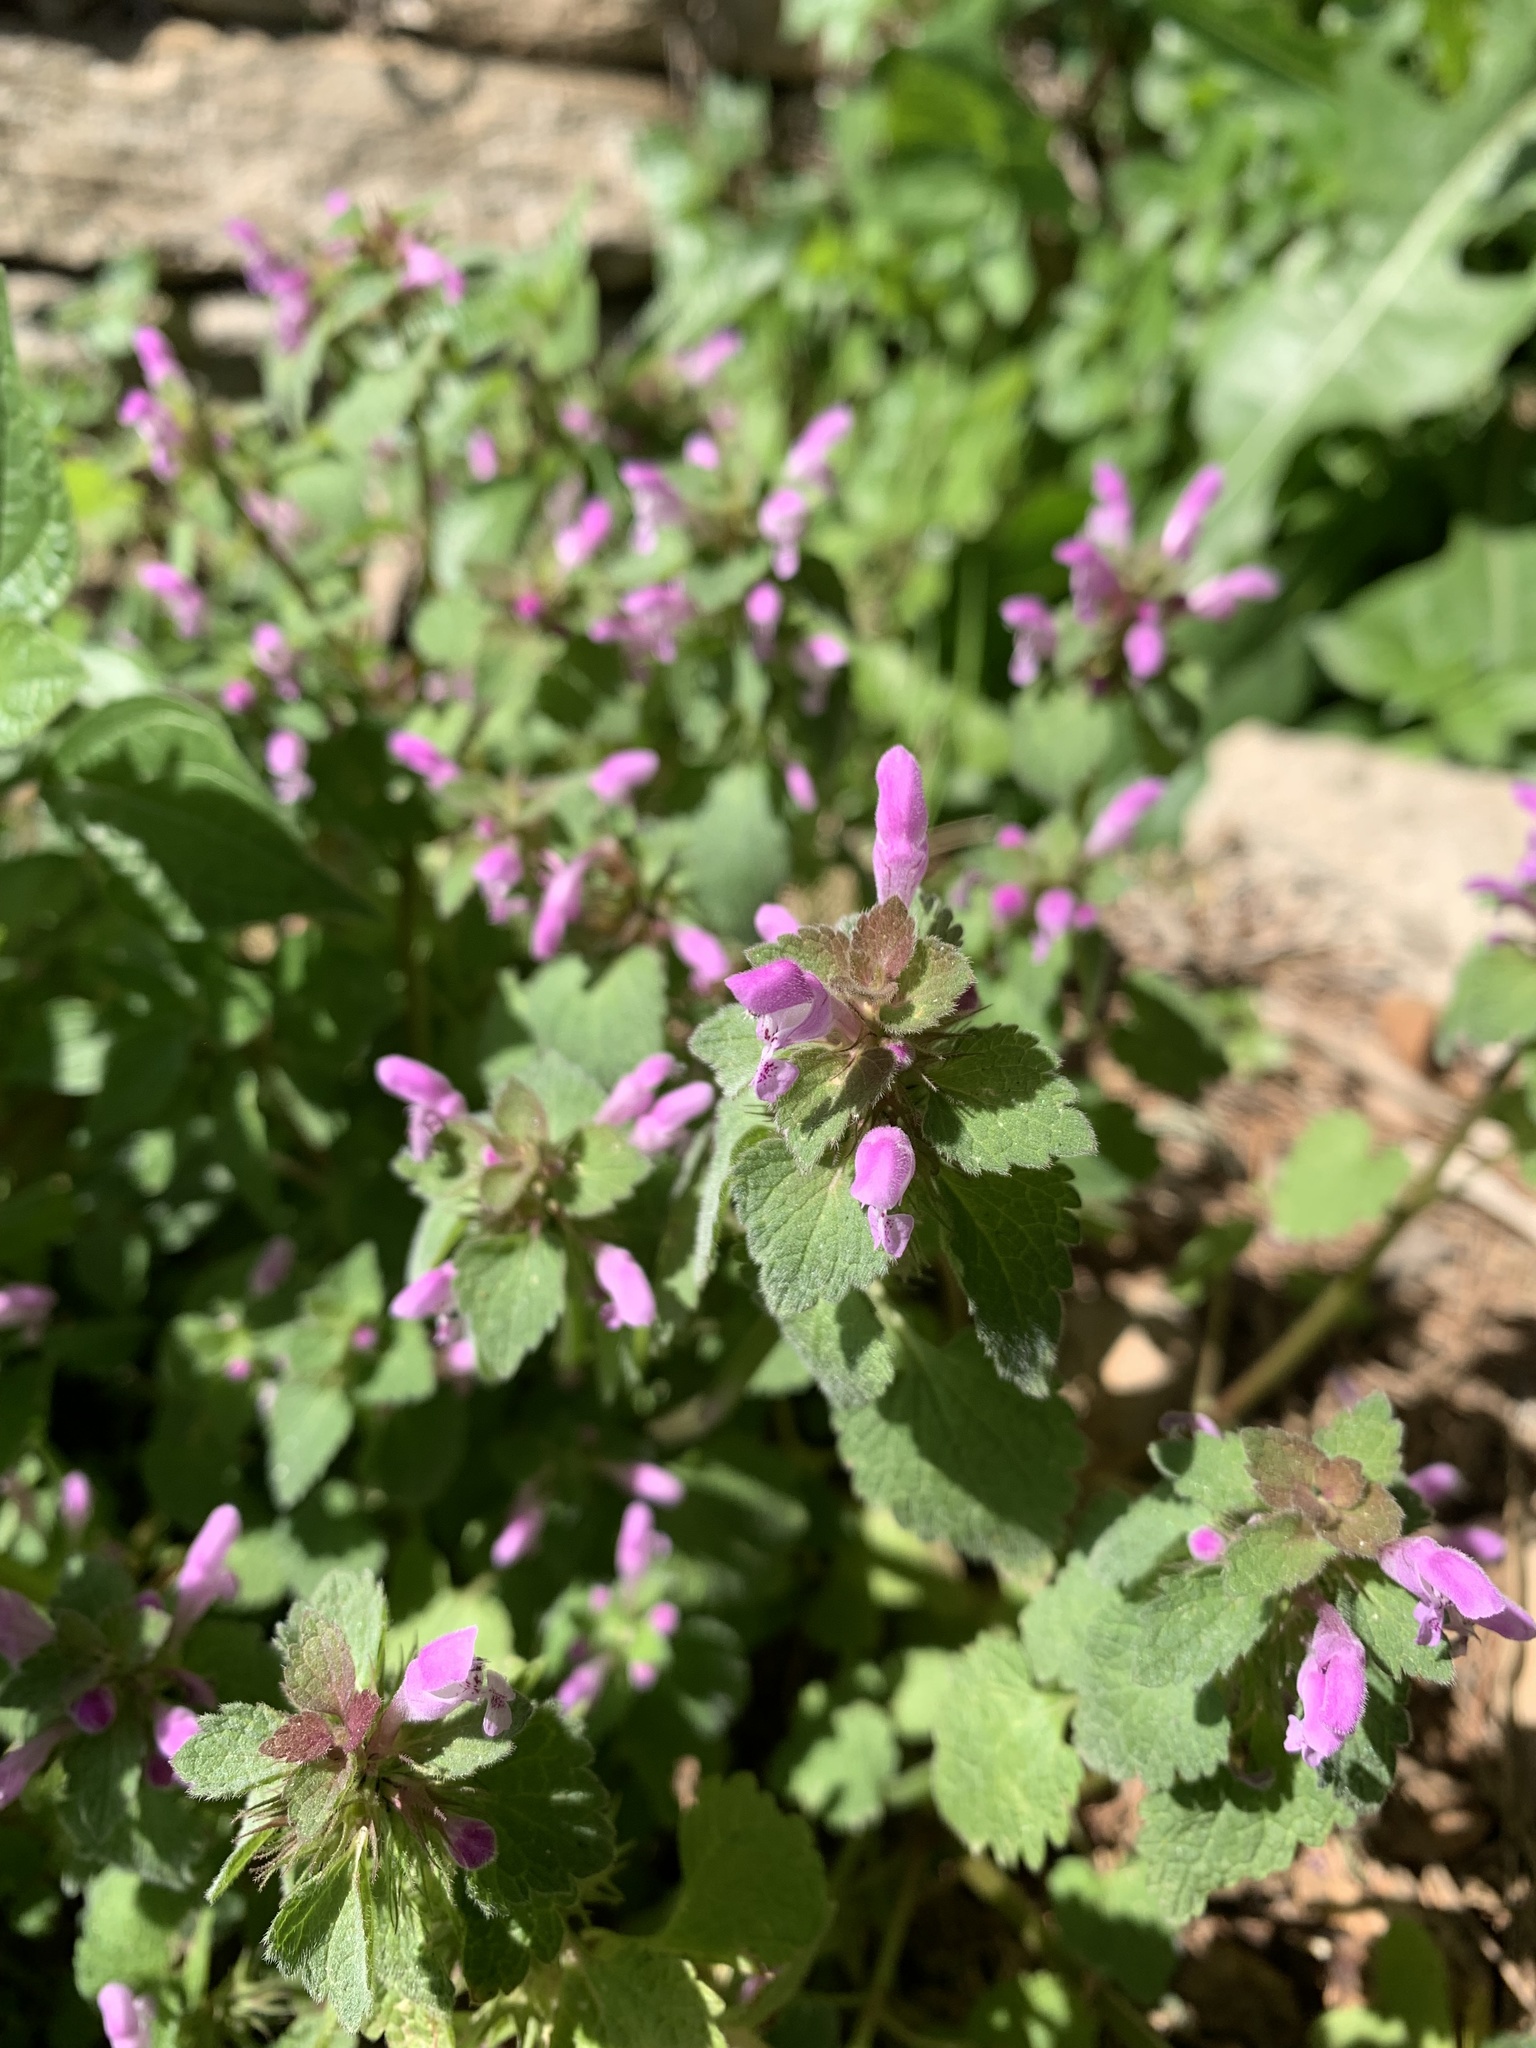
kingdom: Plantae
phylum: Tracheophyta
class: Magnoliopsida
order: Lamiales
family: Lamiaceae
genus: Lamium
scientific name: Lamium purpureum
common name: Red dead-nettle
